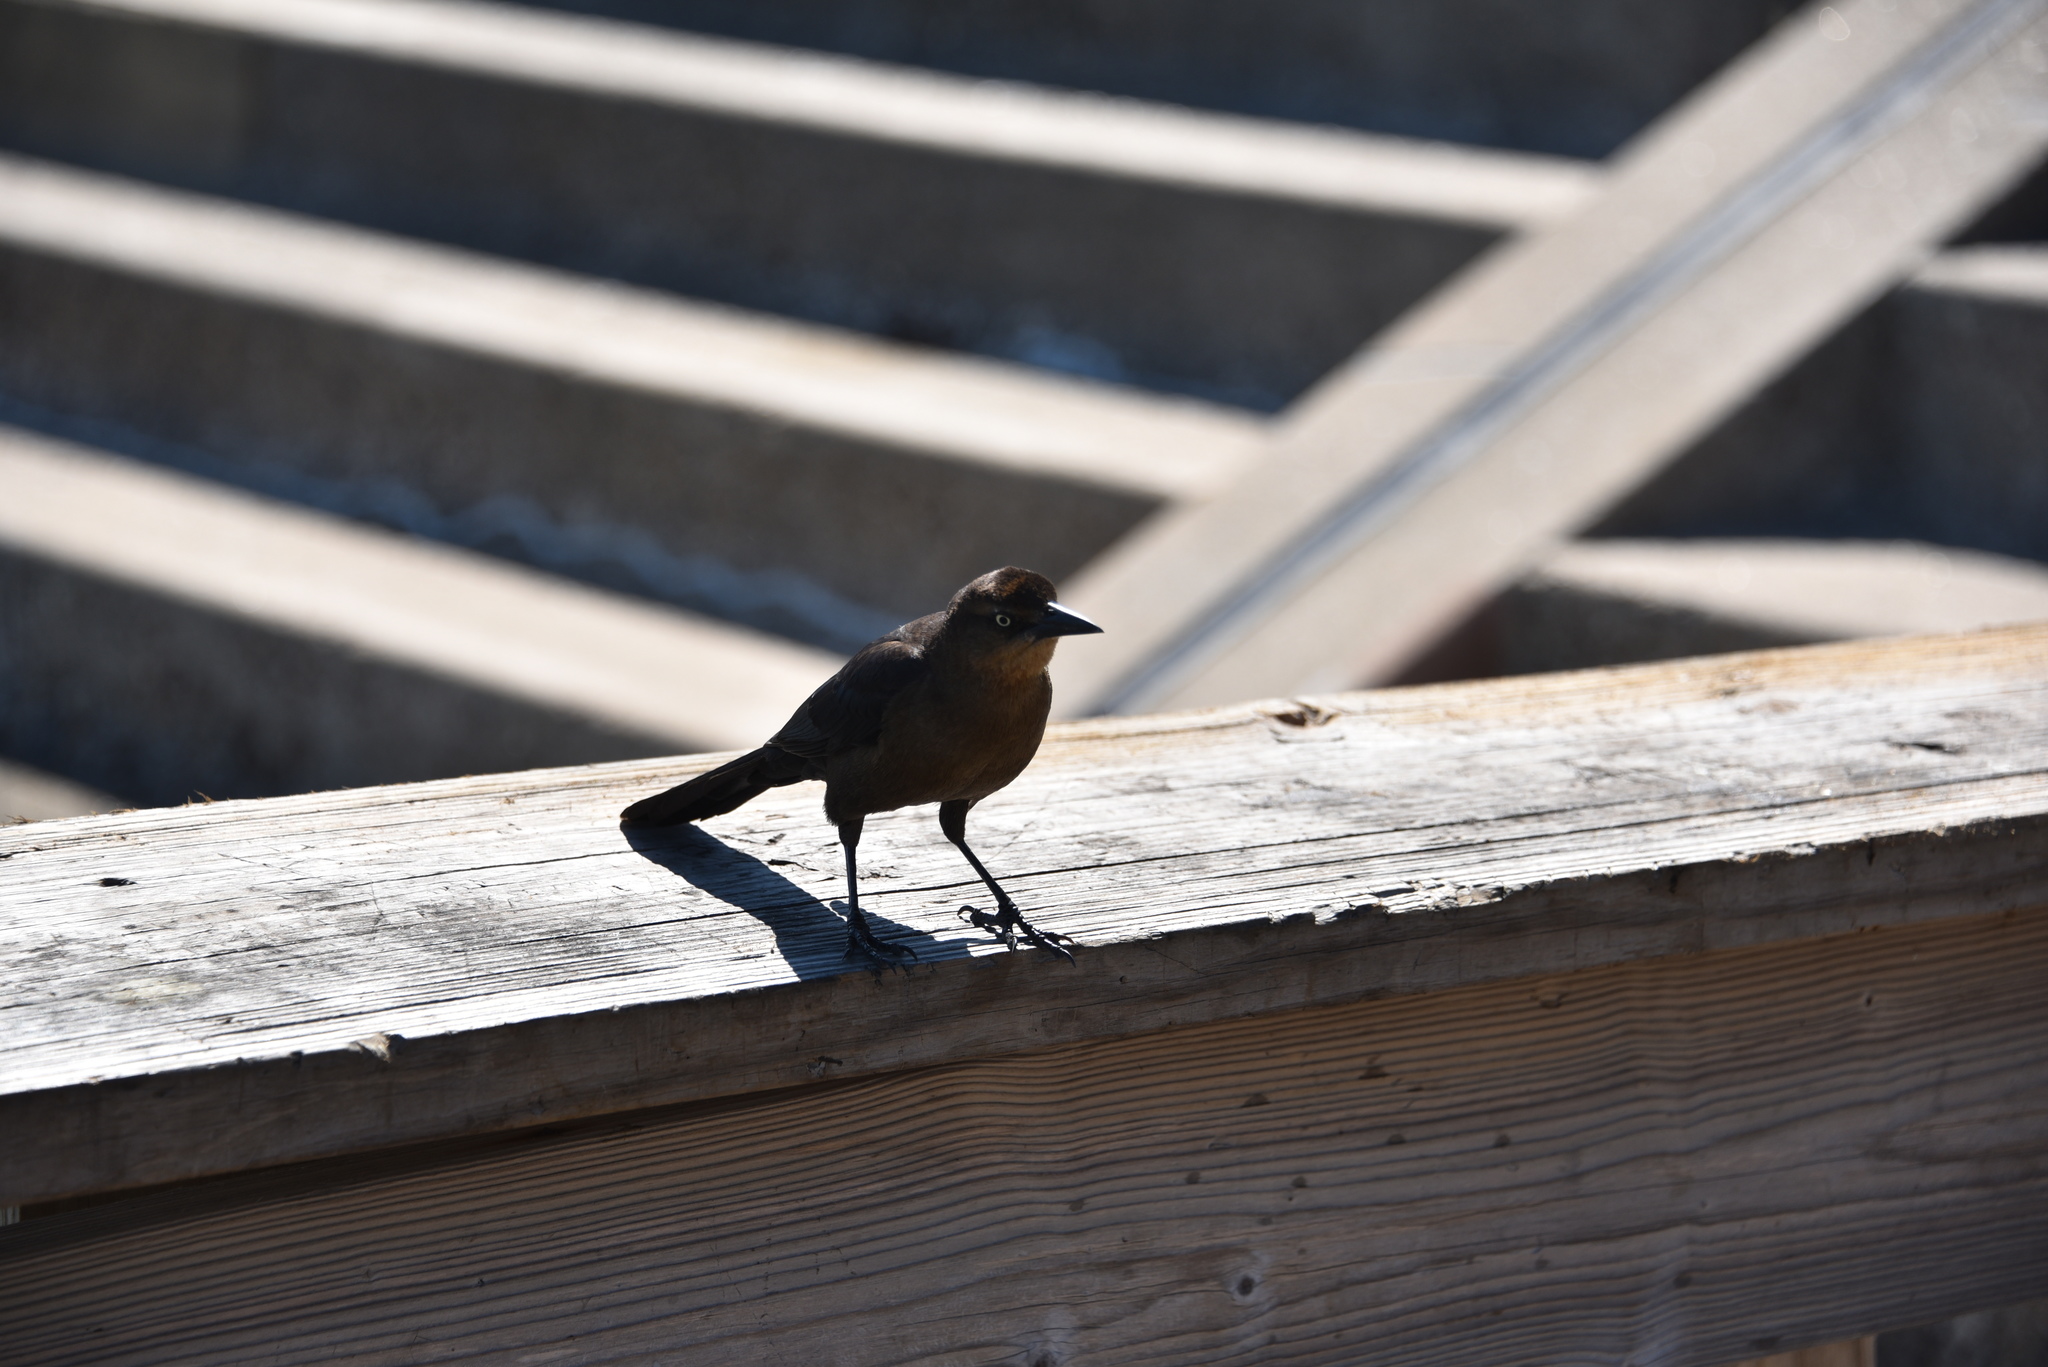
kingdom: Animalia
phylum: Chordata
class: Aves
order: Passeriformes
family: Icteridae
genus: Quiscalus
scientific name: Quiscalus mexicanus
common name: Great-tailed grackle
